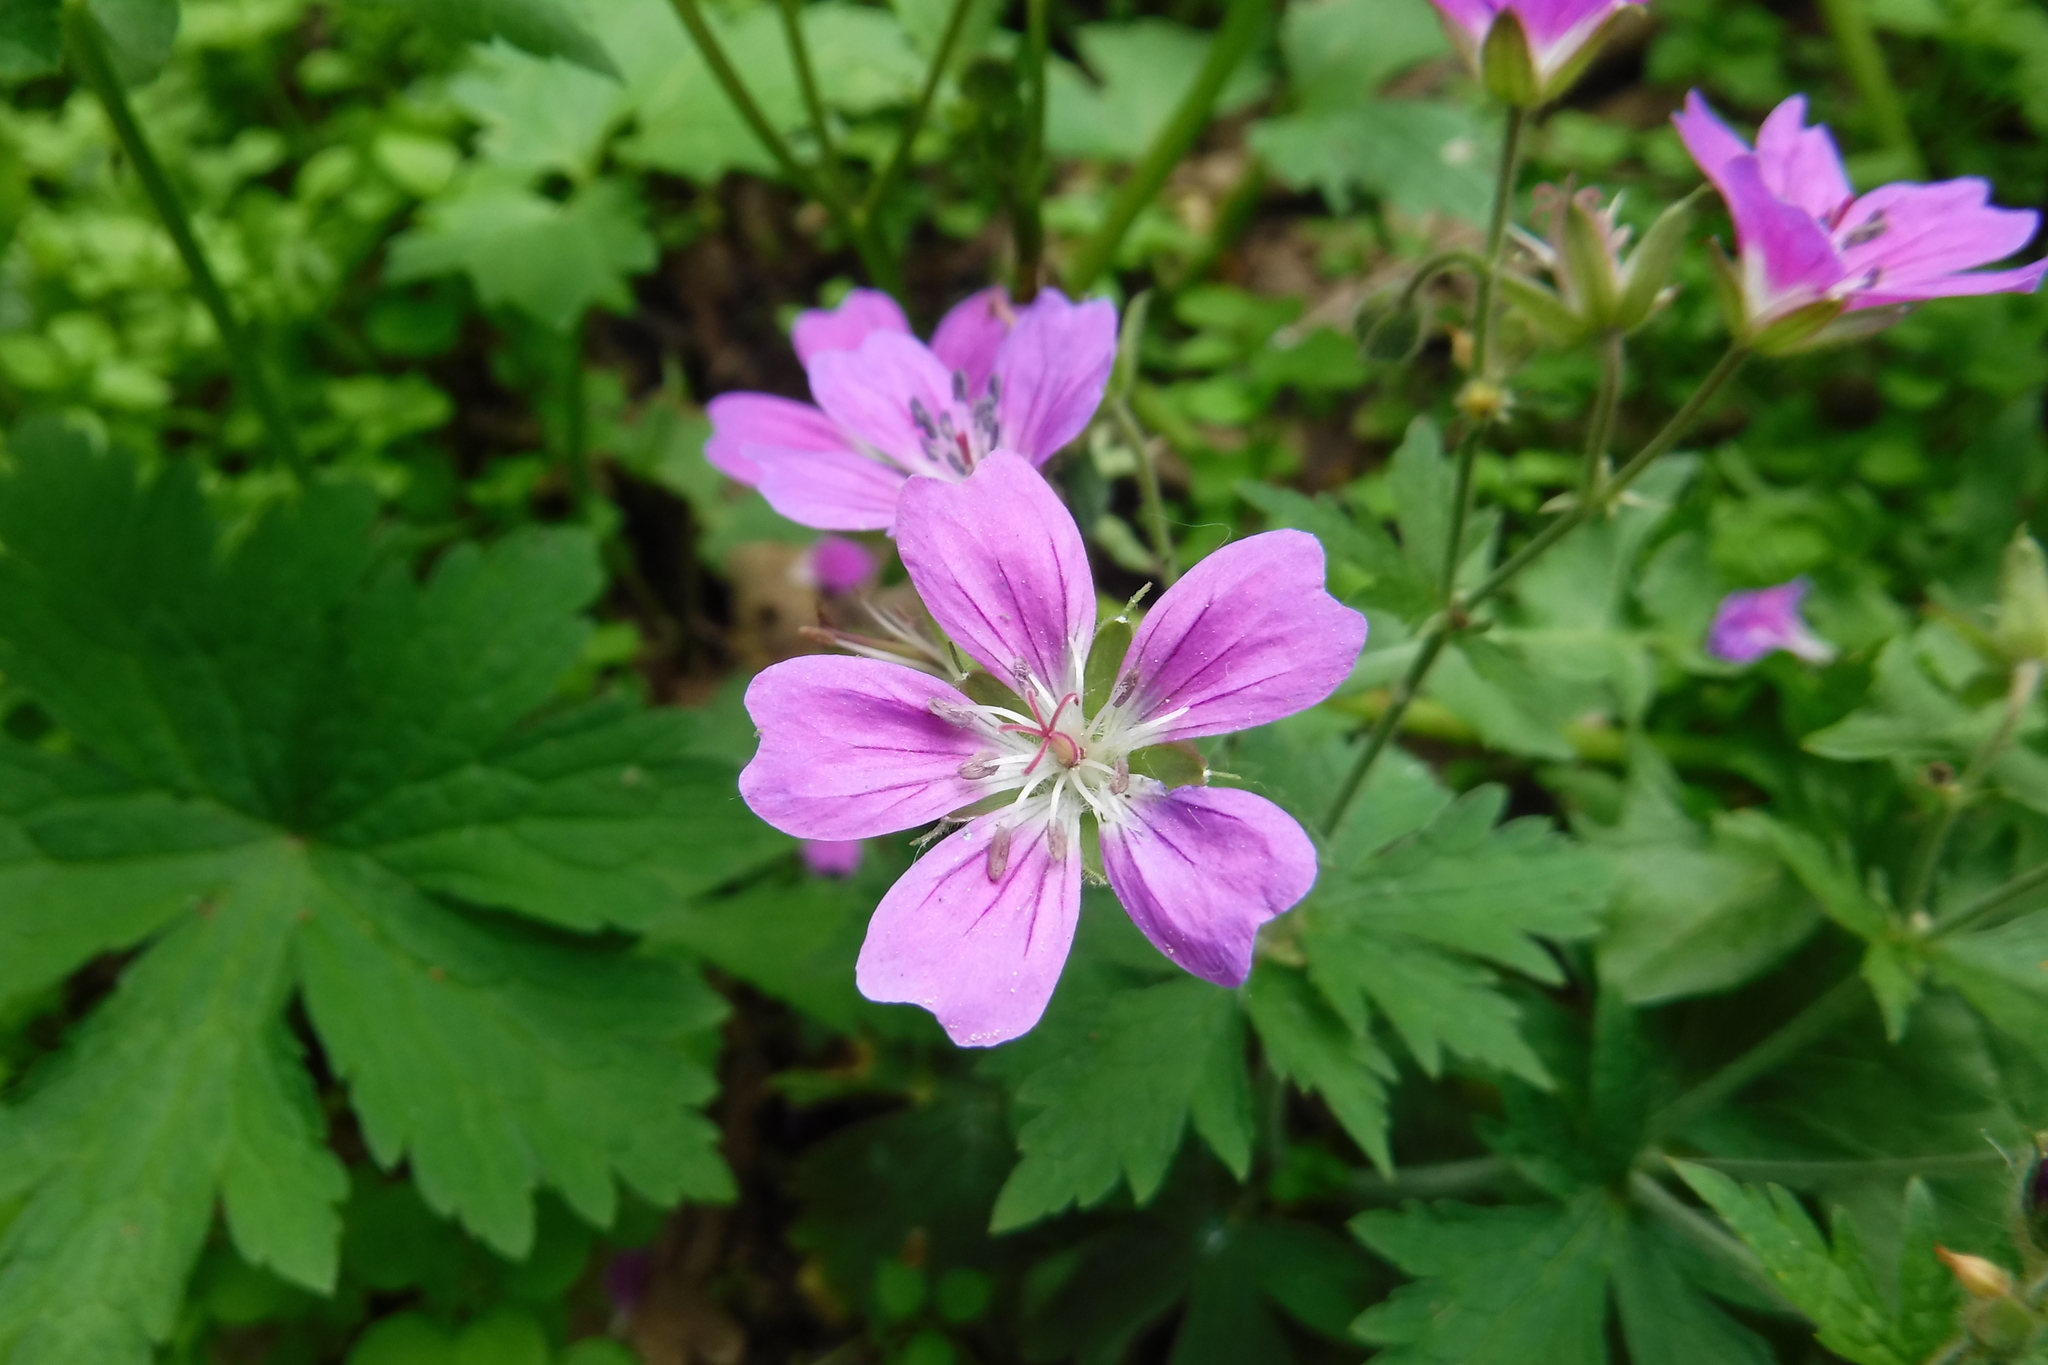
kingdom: Plantae
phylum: Tracheophyta
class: Magnoliopsida
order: Geraniales
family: Geraniaceae
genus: Geranium
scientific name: Geranium sylvaticum
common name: Wood crane's-bill
